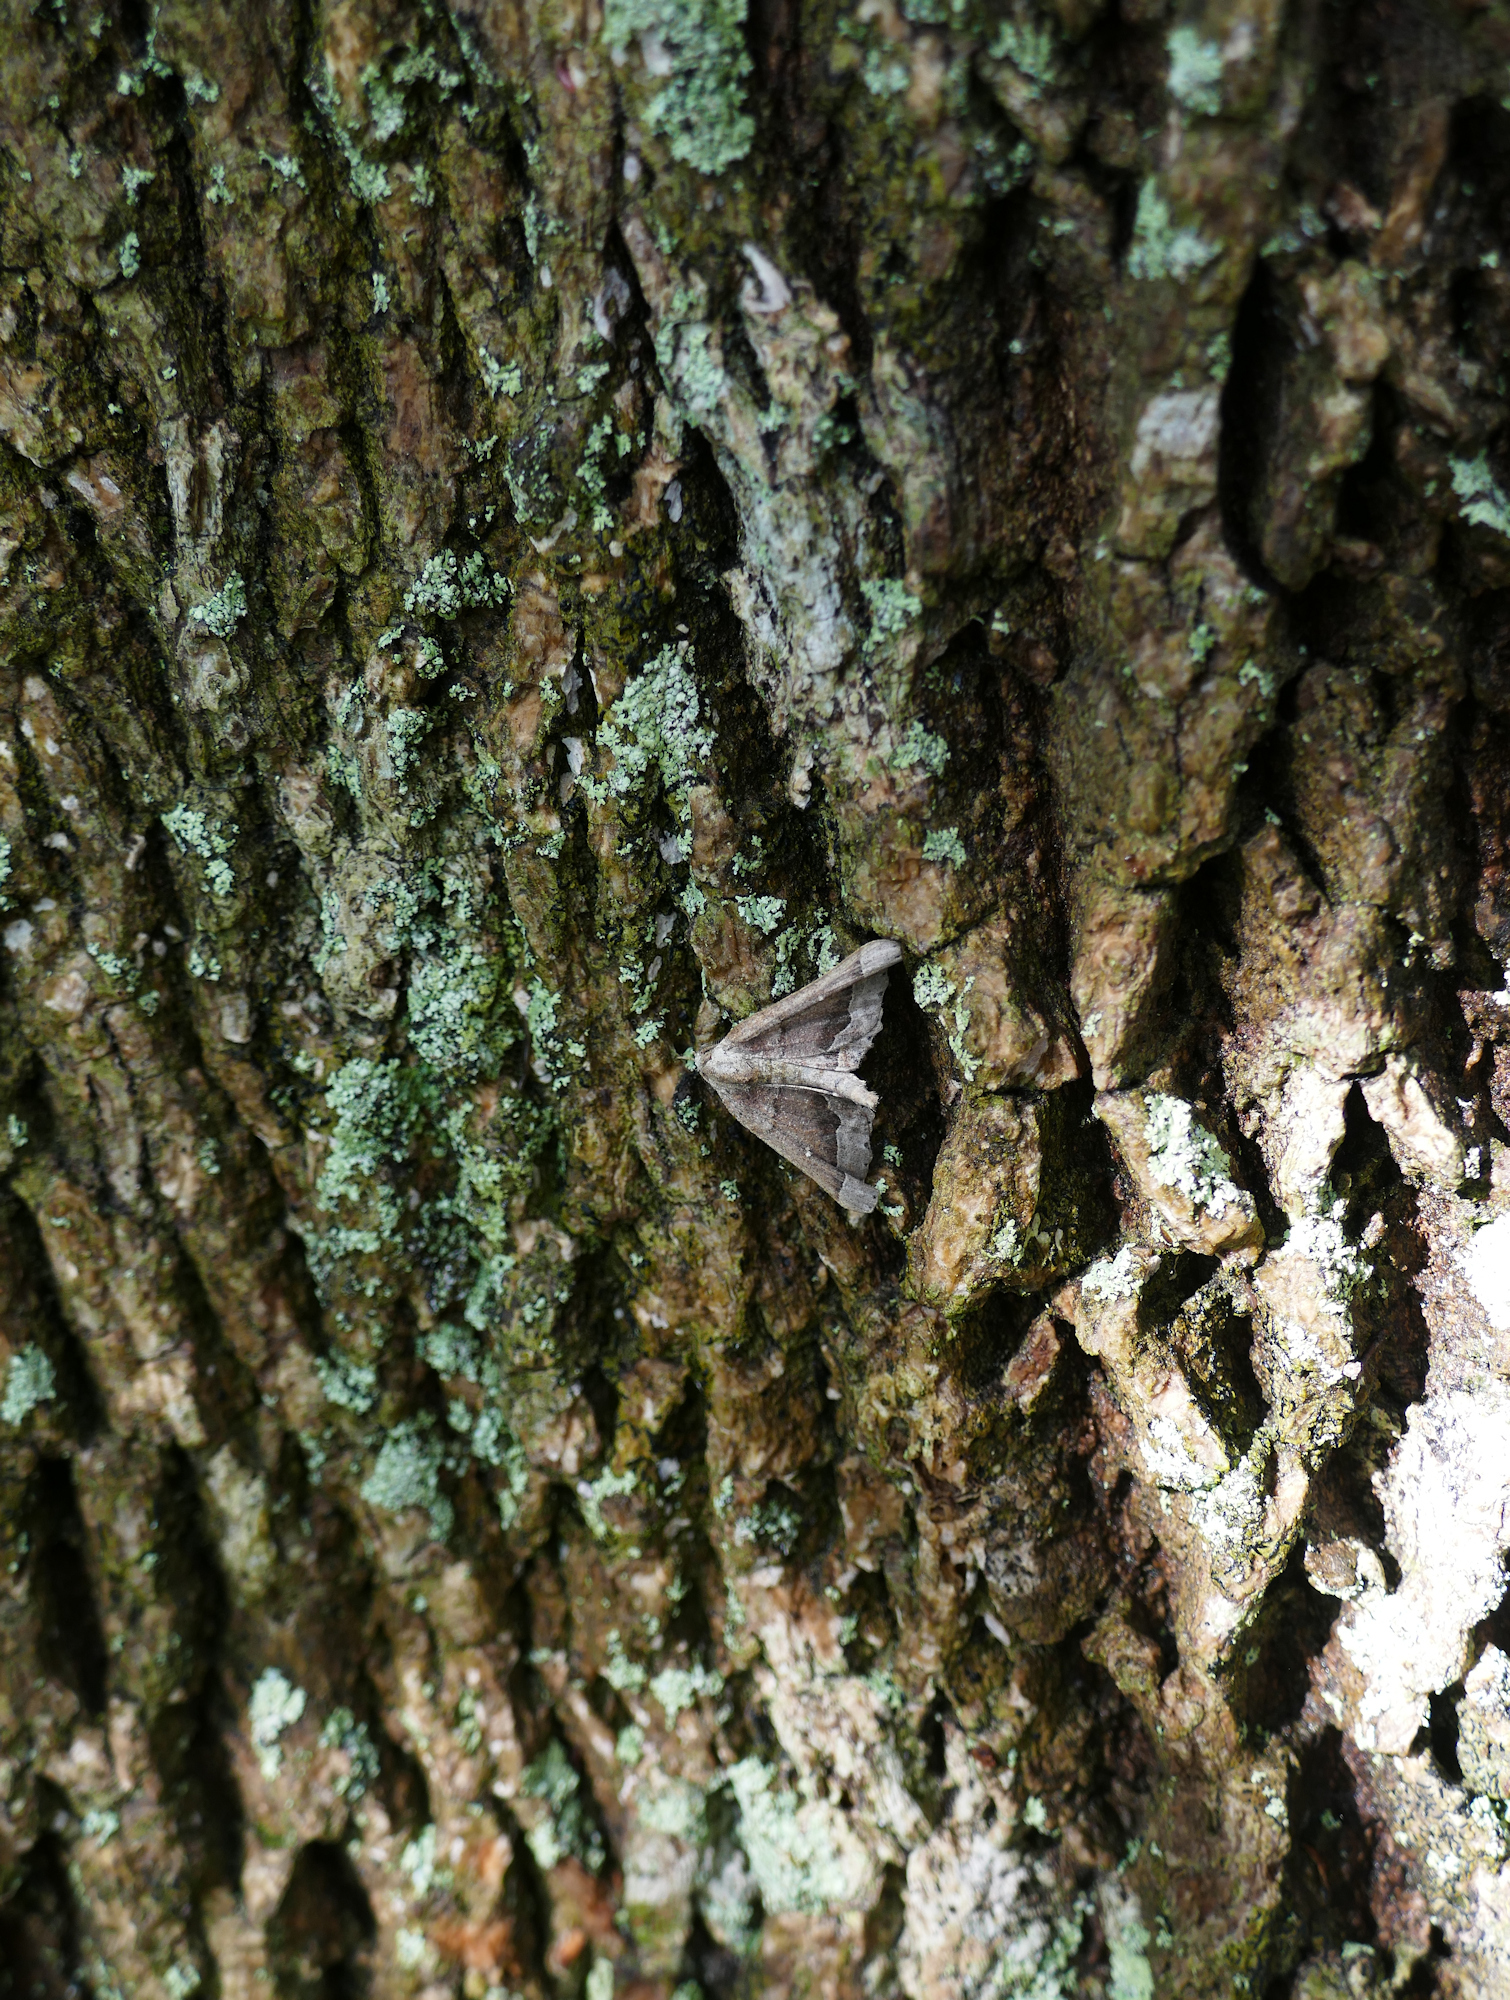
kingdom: Animalia
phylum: Arthropoda
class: Insecta
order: Lepidoptera
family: Geometridae
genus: Pero
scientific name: Pero meskaria
